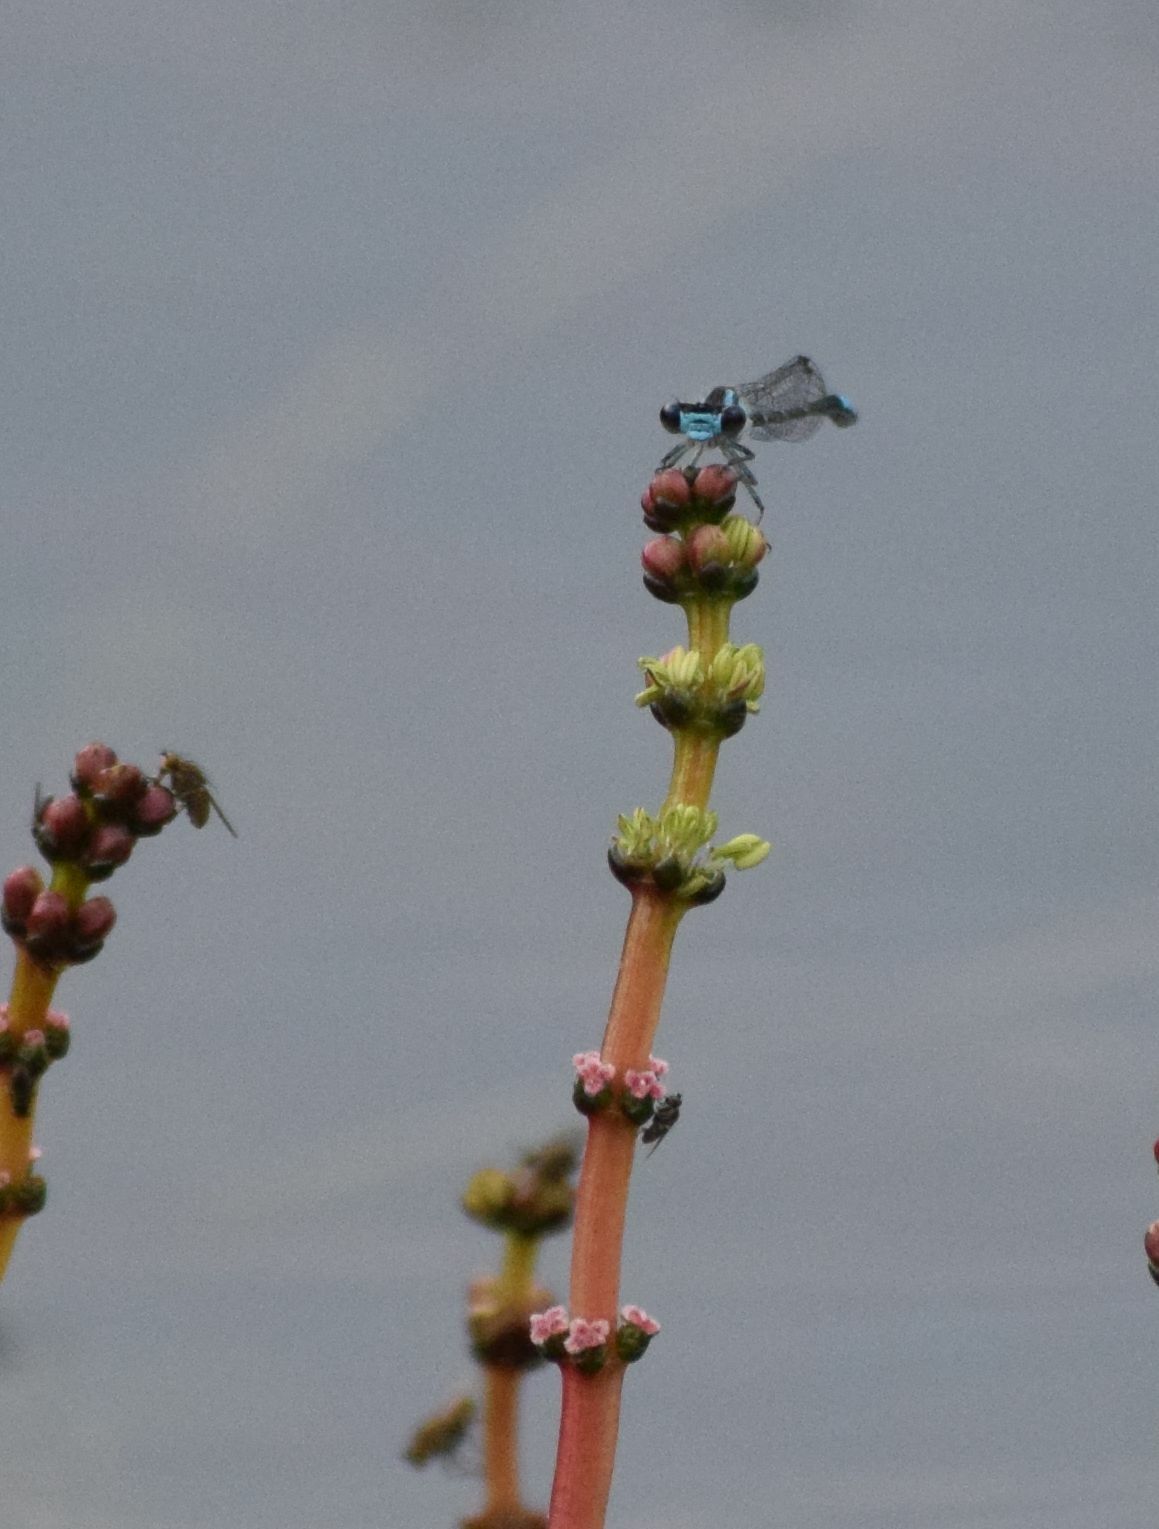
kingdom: Animalia
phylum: Arthropoda
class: Insecta
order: Odonata
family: Coenagrionidae
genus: Enallagma
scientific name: Enallagma geminatum
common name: Skimming bluet
